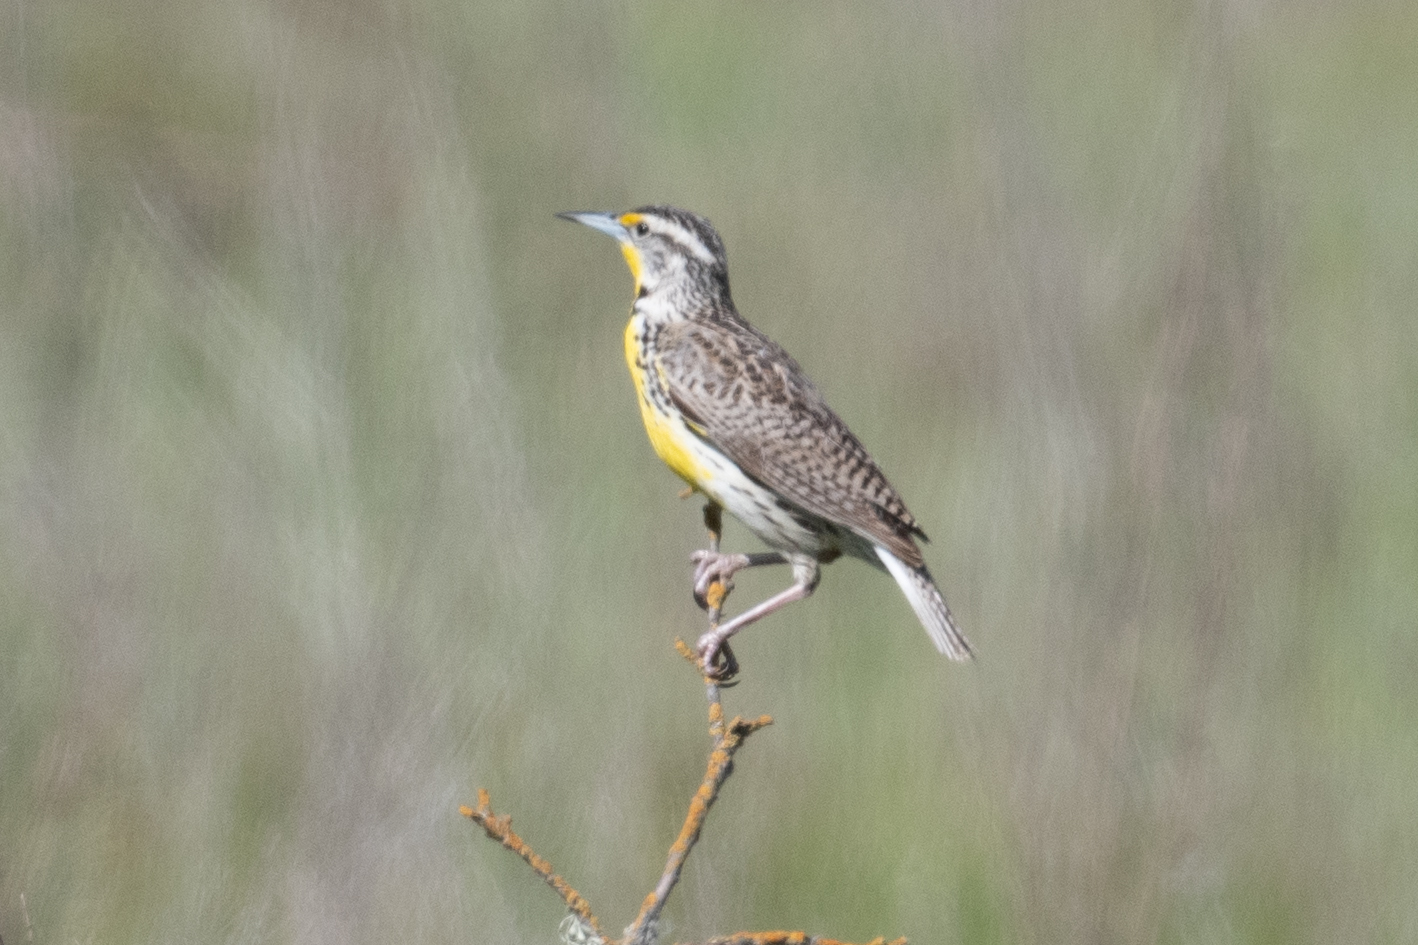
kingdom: Animalia
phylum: Chordata
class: Aves
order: Passeriformes
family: Icteridae
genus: Sturnella
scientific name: Sturnella neglecta
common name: Western meadowlark
